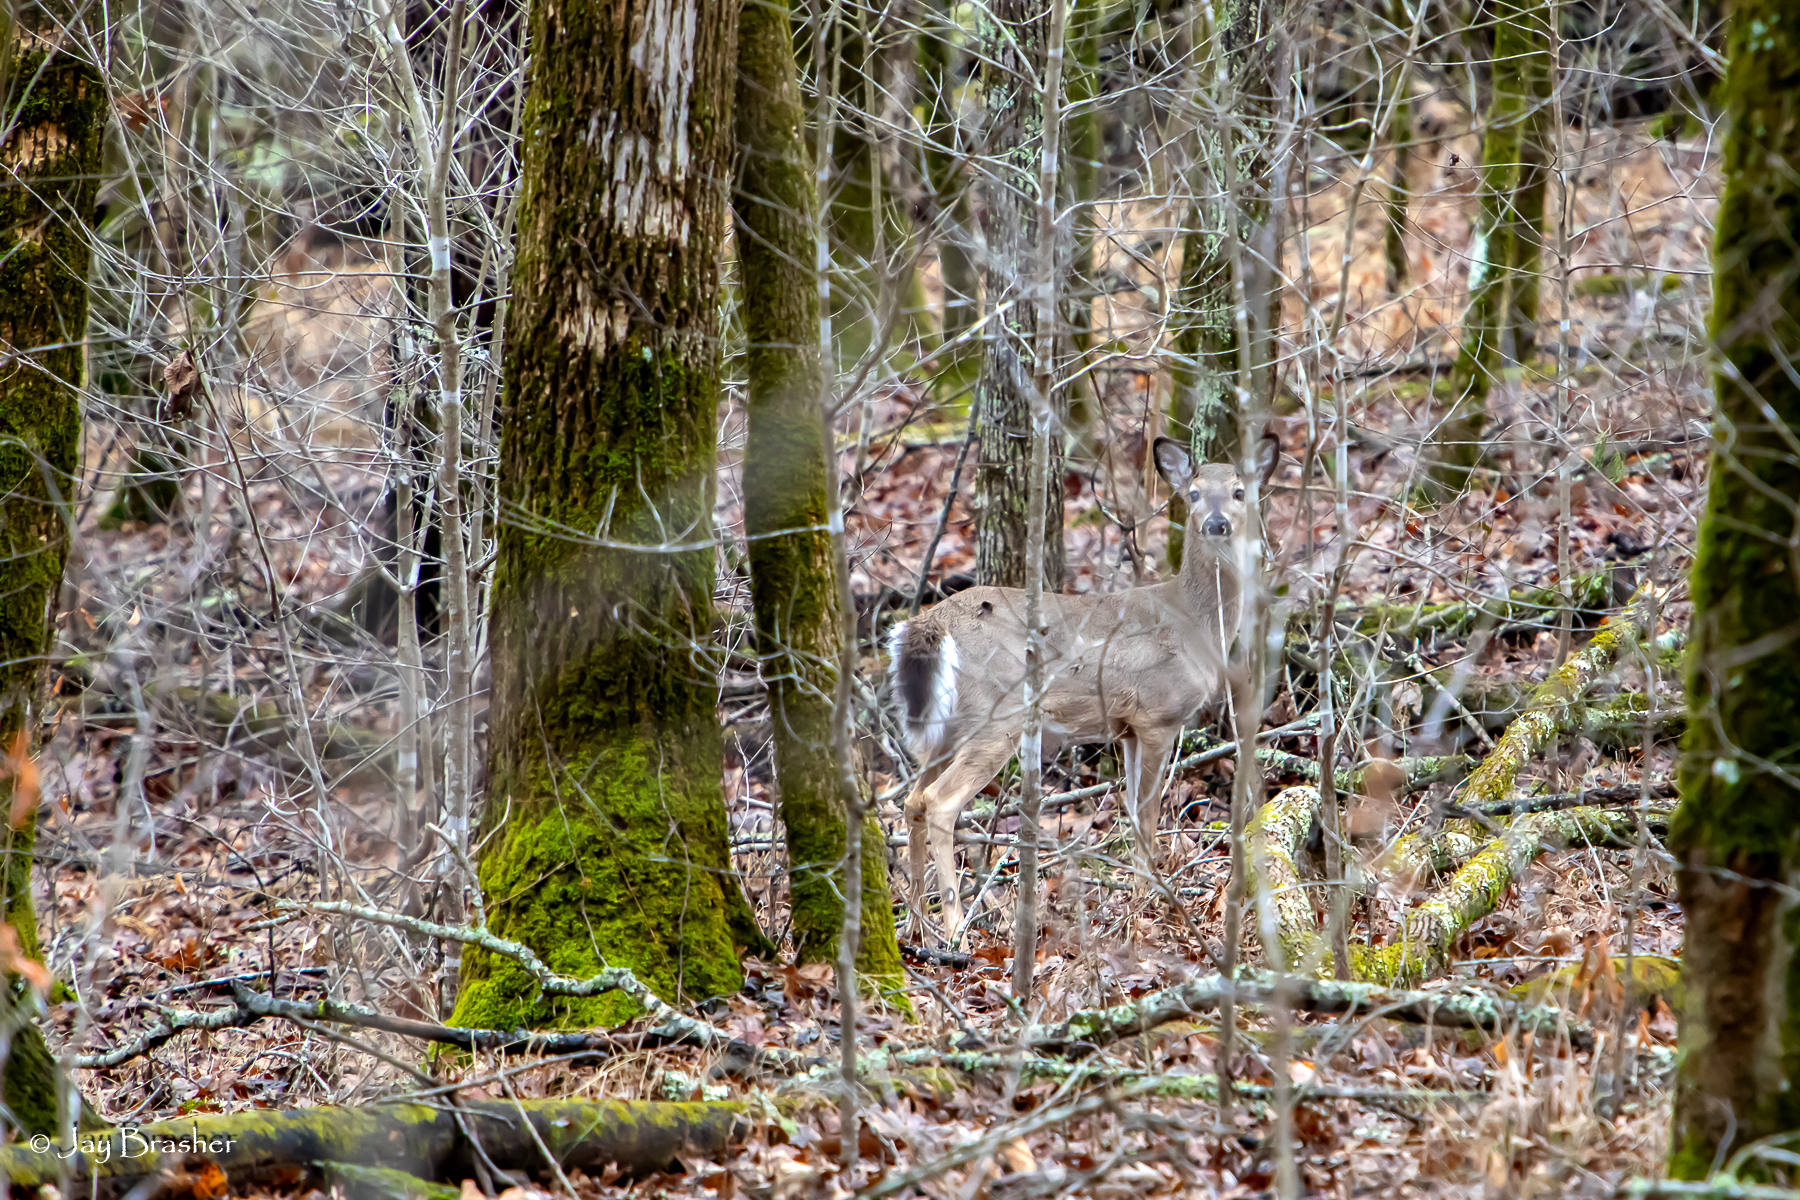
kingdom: Animalia
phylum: Chordata
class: Mammalia
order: Artiodactyla
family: Cervidae
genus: Odocoileus
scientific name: Odocoileus virginianus
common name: White-tailed deer
